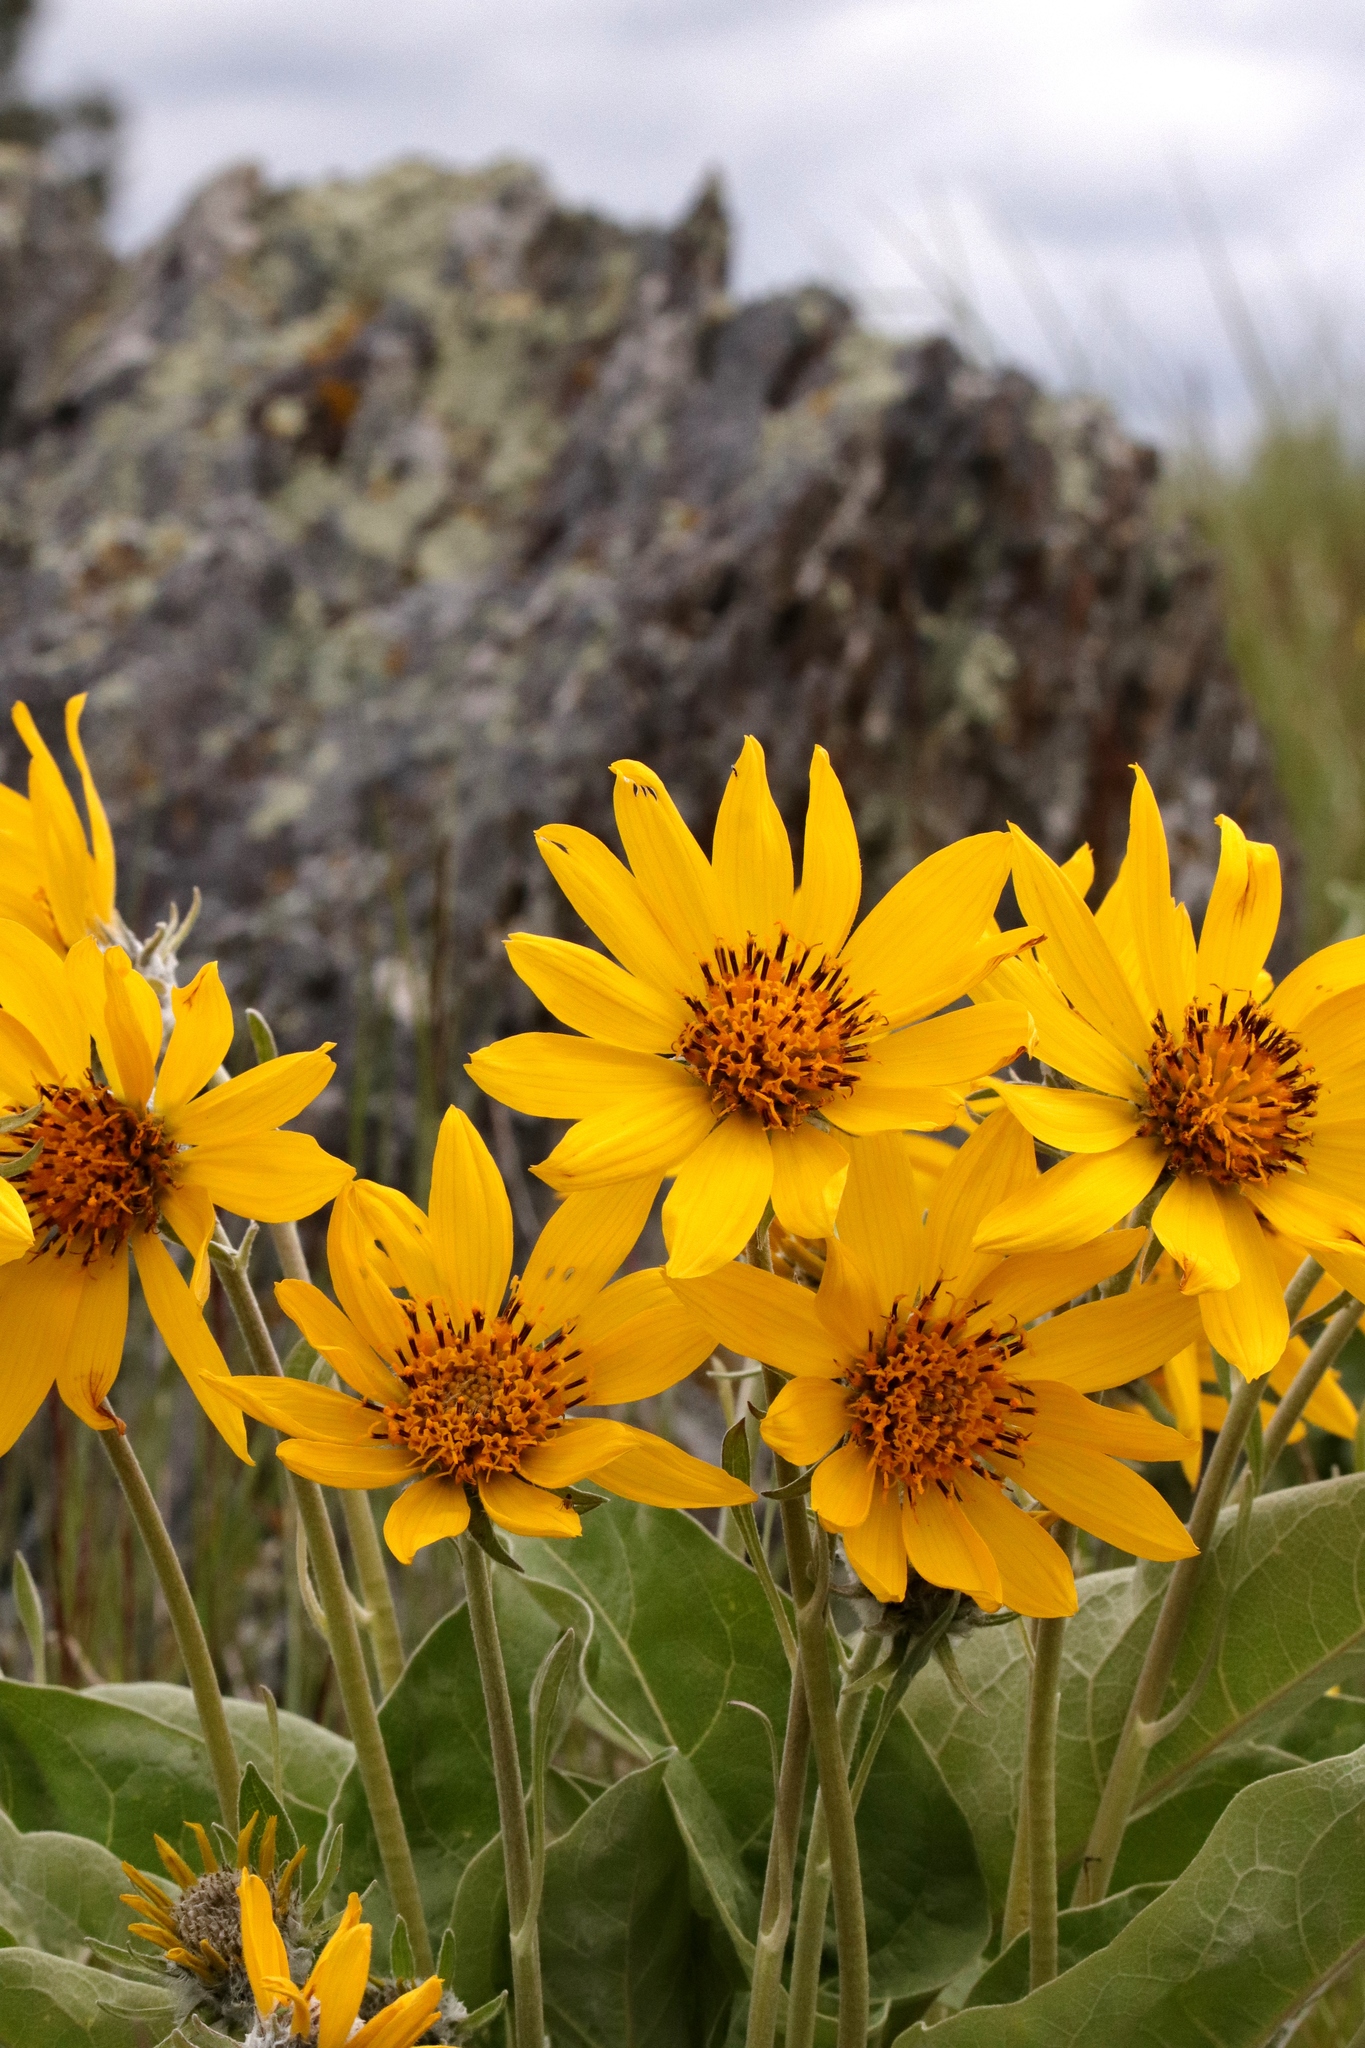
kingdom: Plantae
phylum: Tracheophyta
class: Magnoliopsida
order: Asterales
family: Asteraceae
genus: Wyethia
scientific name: Wyethia sagittata
